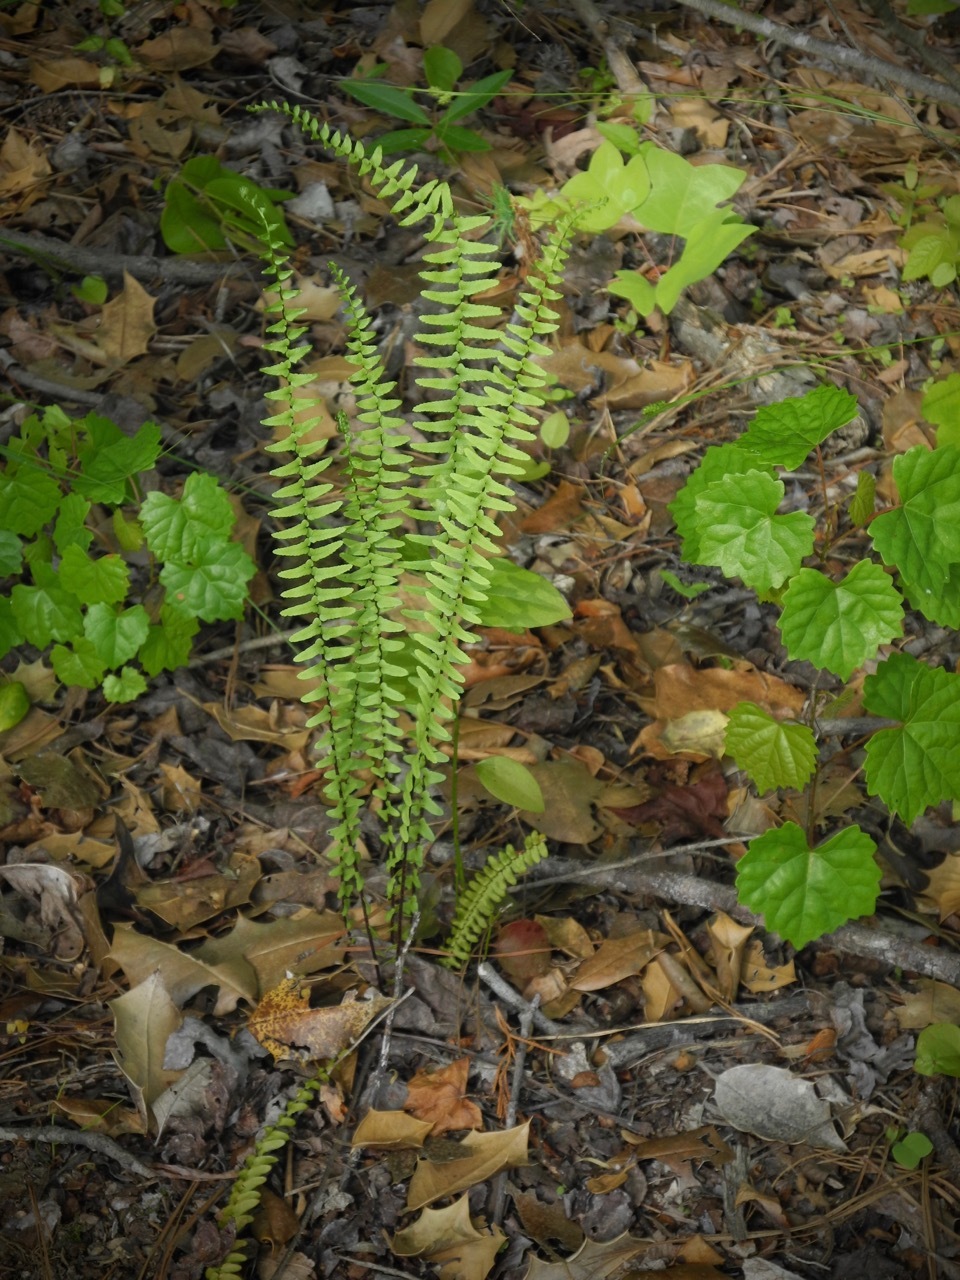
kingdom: Plantae
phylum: Tracheophyta
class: Polypodiopsida
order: Polypodiales
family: Aspleniaceae
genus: Asplenium
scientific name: Asplenium platyneuron
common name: Ebony spleenwort
